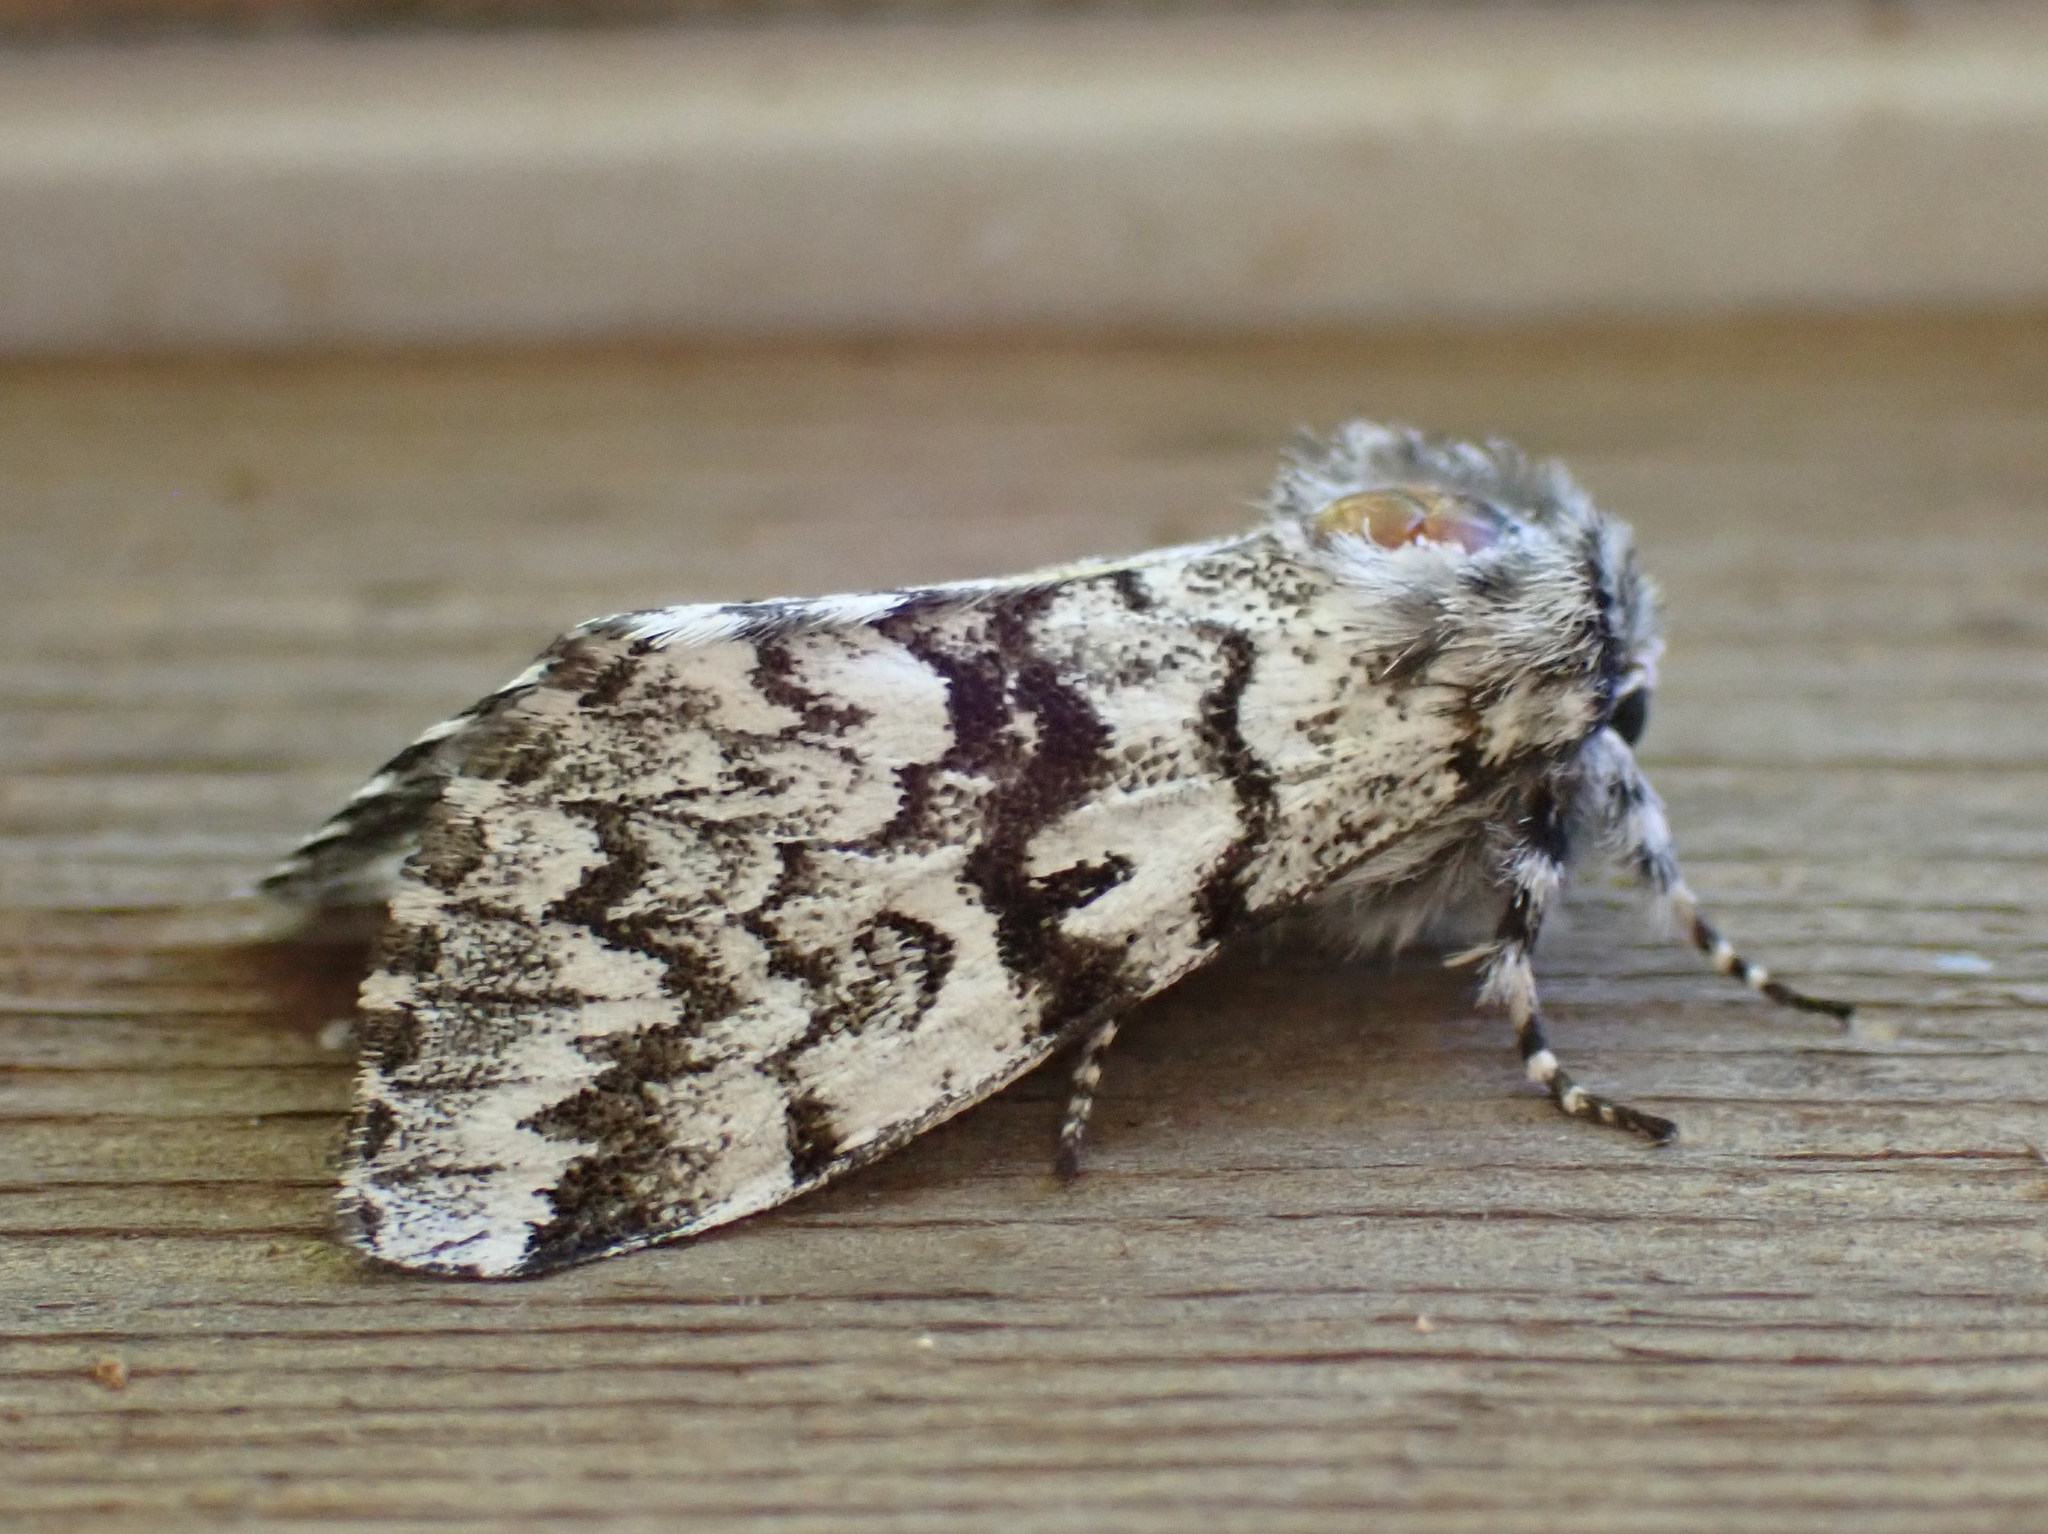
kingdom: Animalia
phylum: Arthropoda
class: Insecta
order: Lepidoptera
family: Noctuidae
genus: Panthea
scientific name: Panthea acronyctoides
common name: Black zigzag moth
